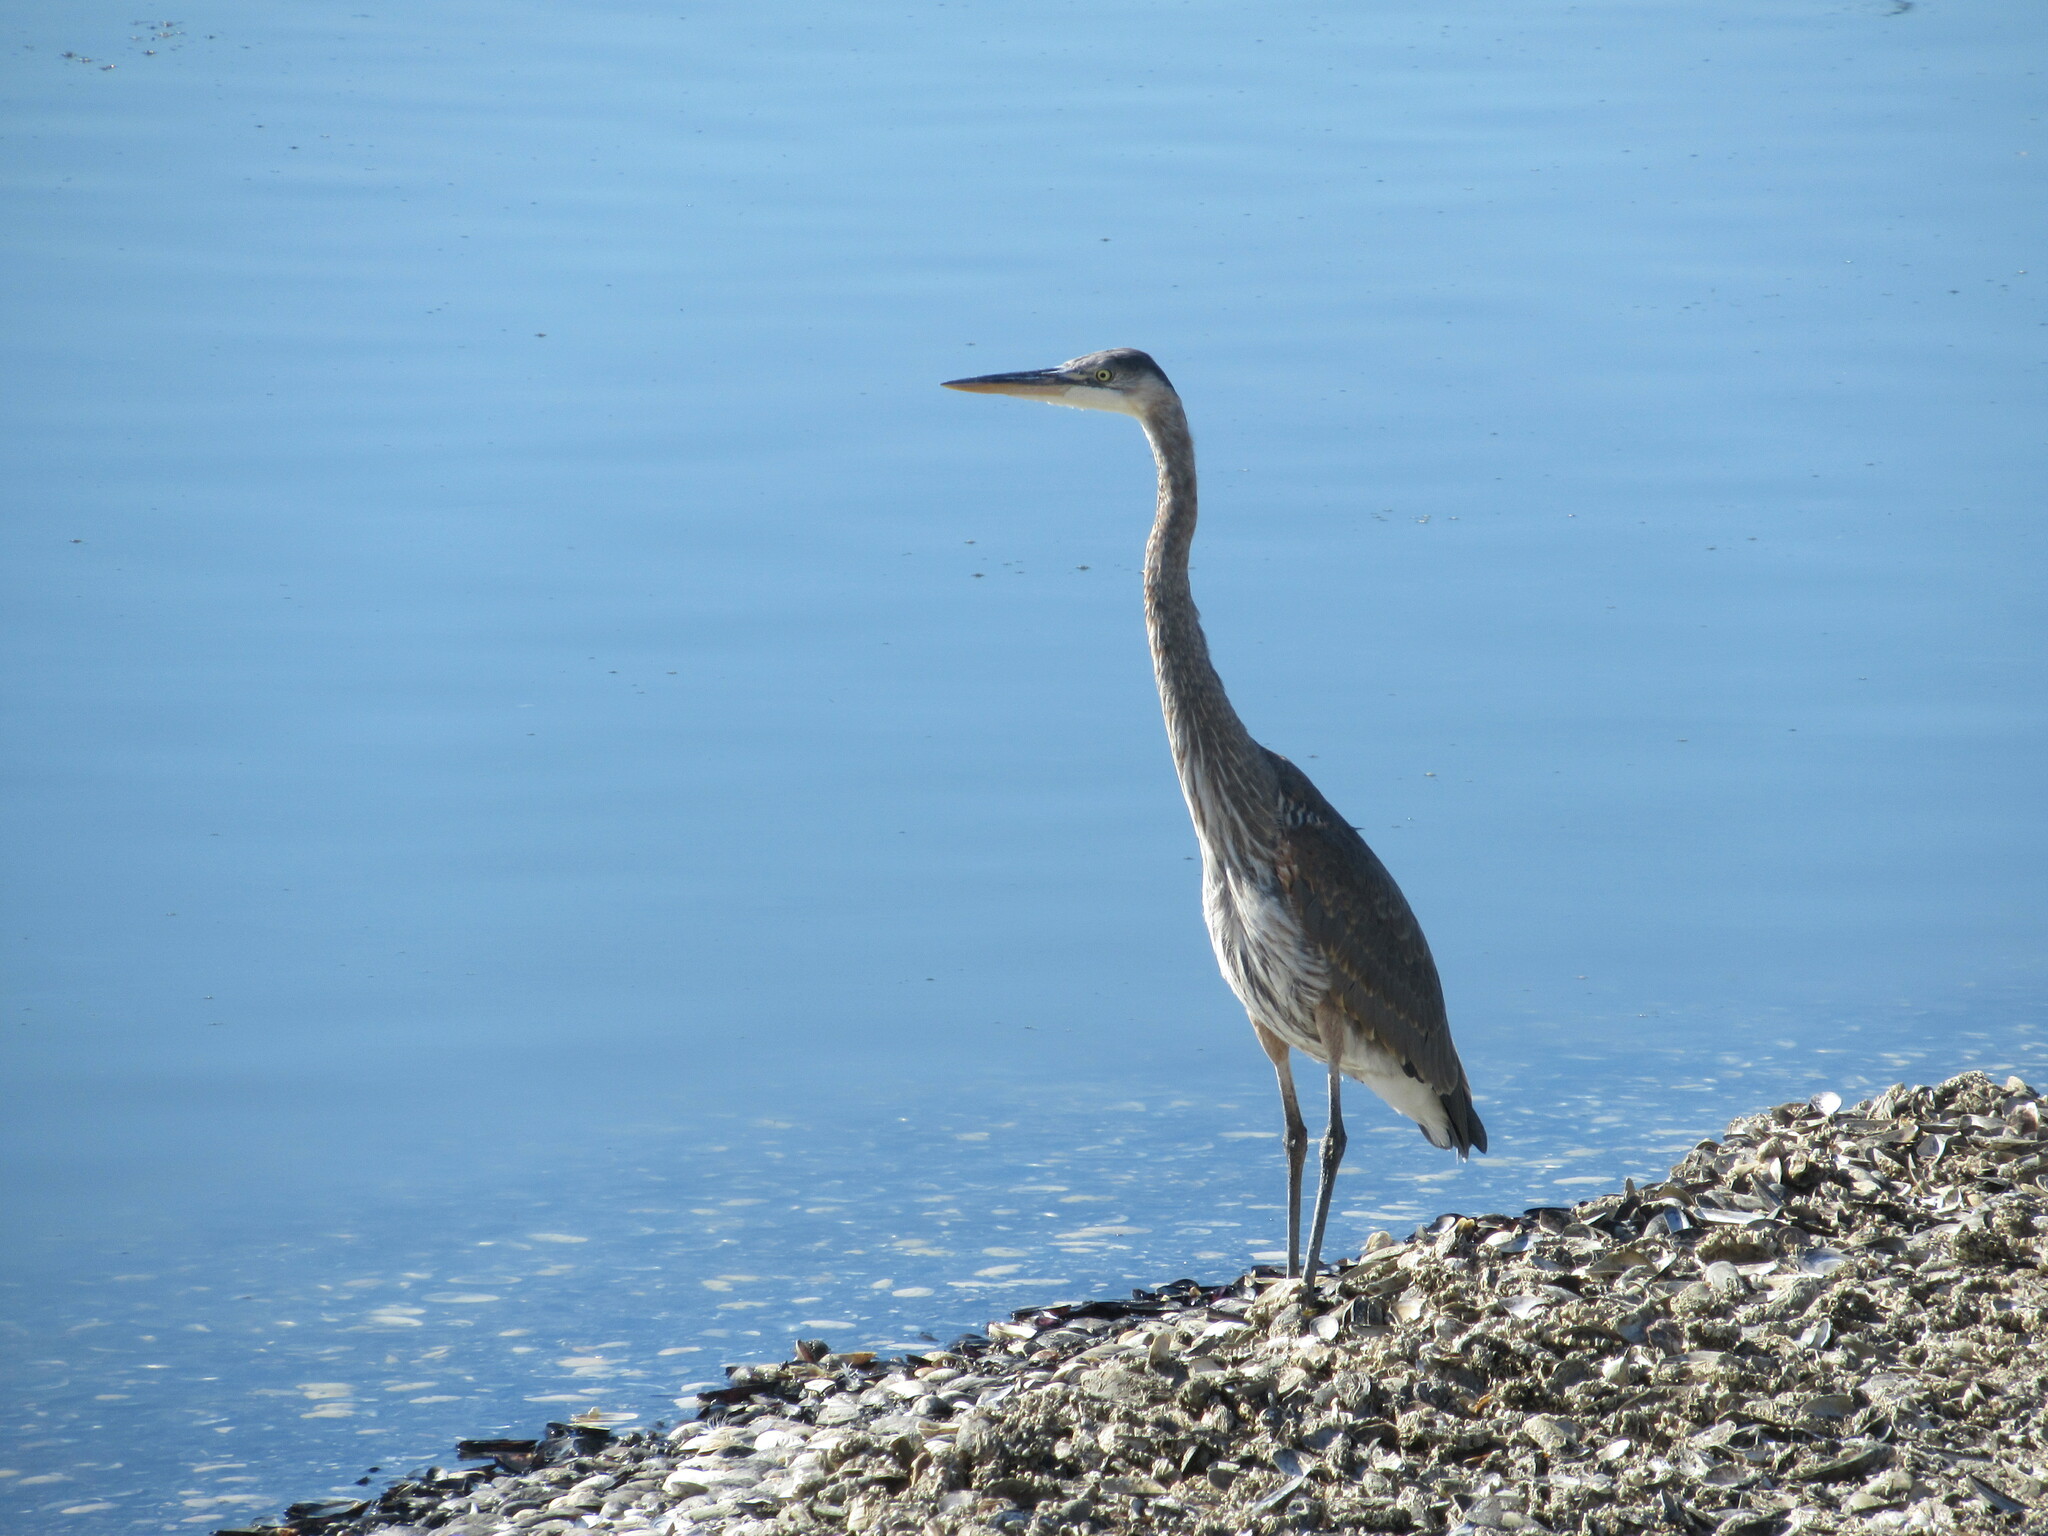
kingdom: Animalia
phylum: Chordata
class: Aves
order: Pelecaniformes
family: Ardeidae
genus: Ardea
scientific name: Ardea herodias
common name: Great blue heron
